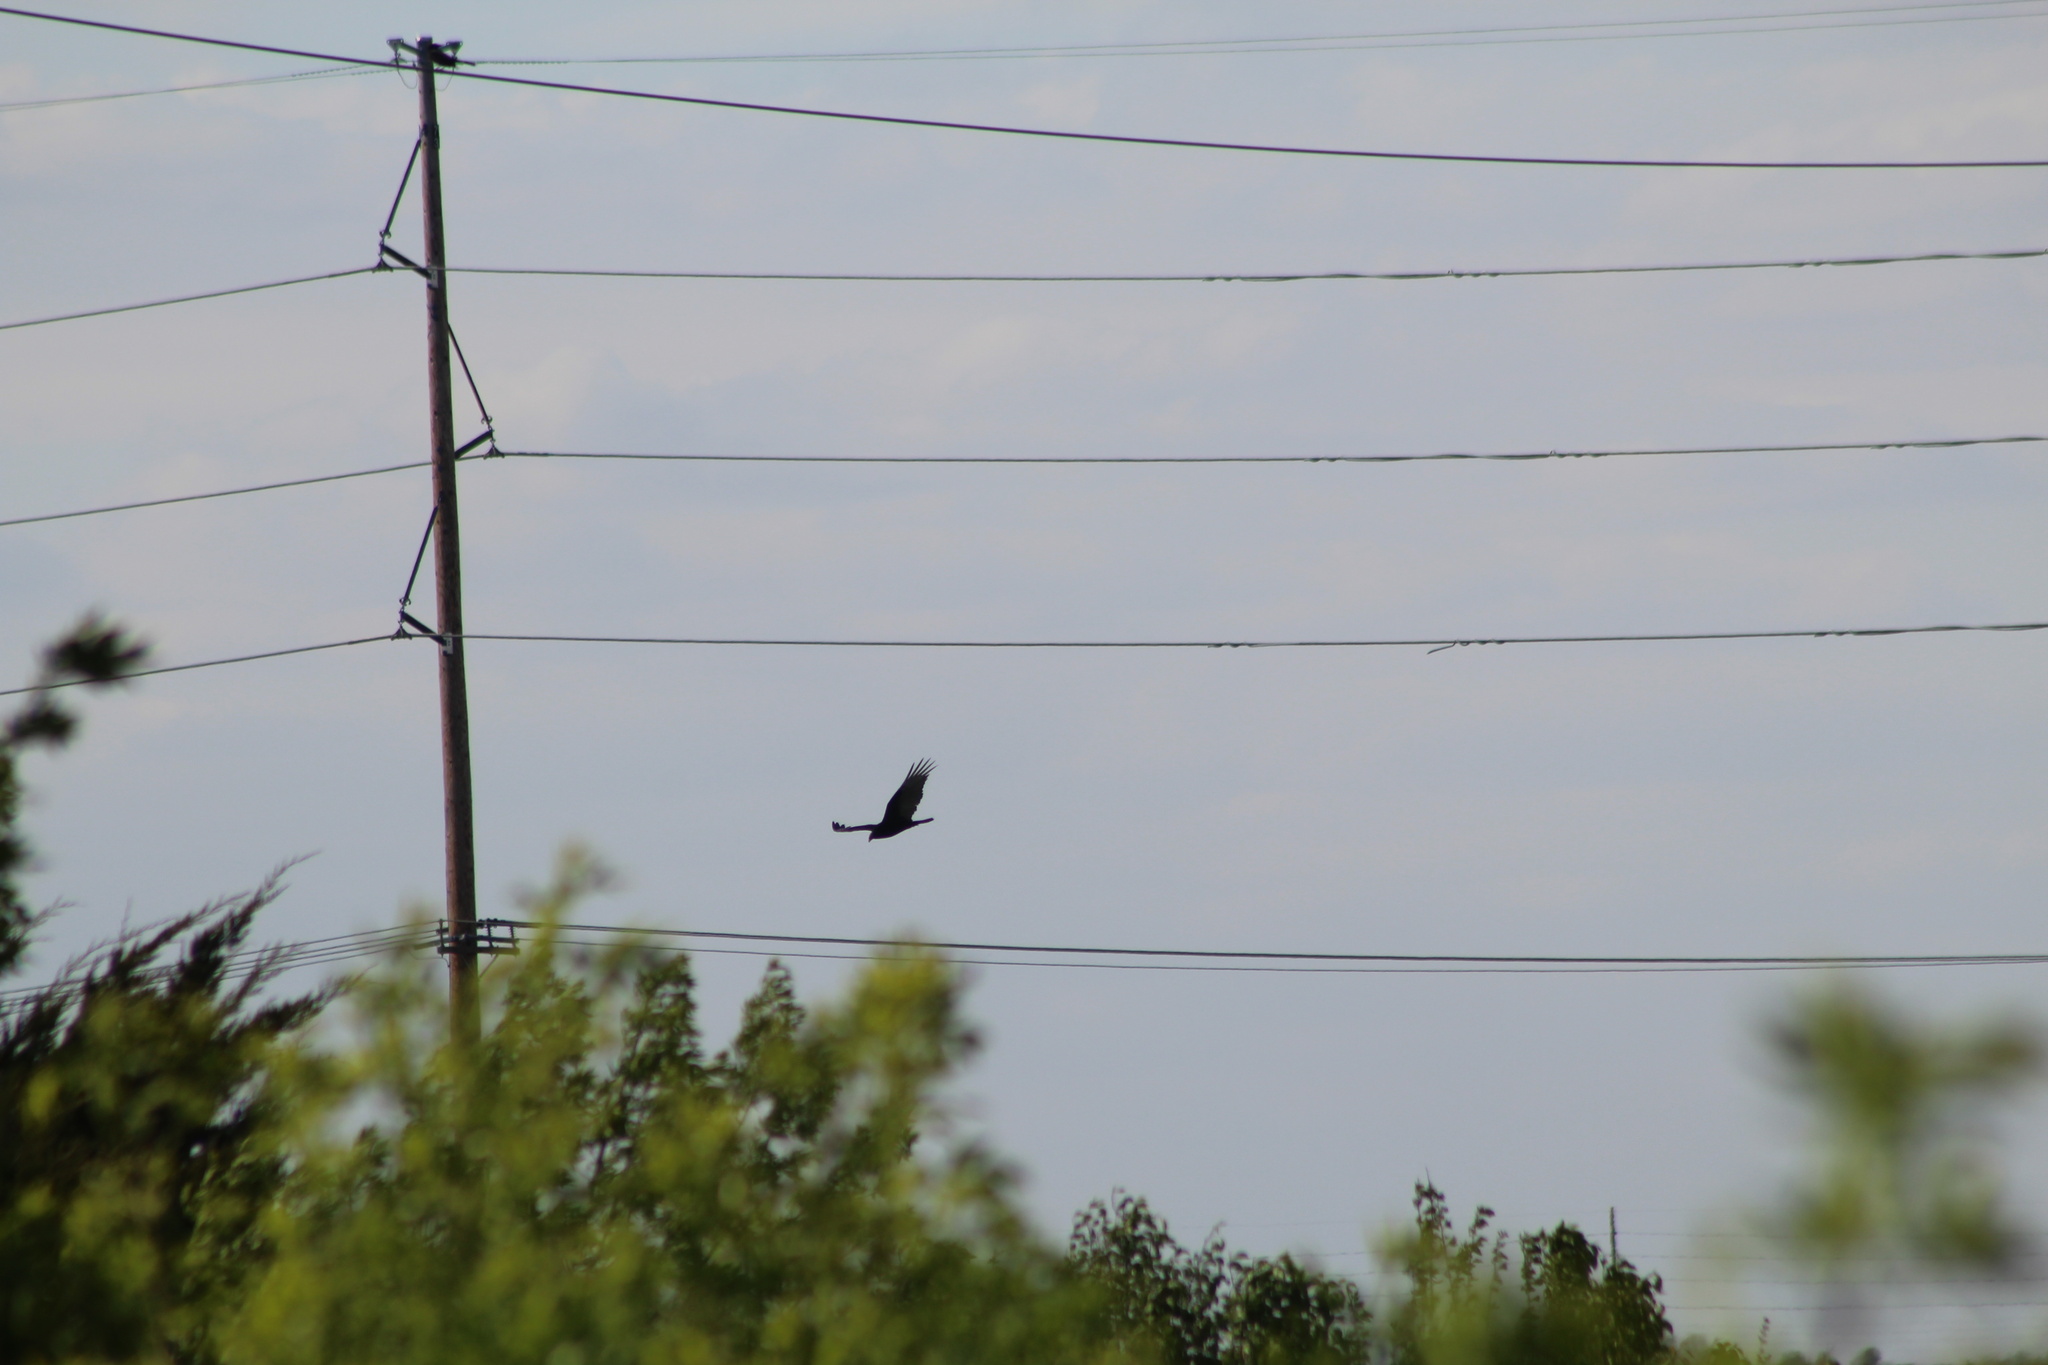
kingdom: Animalia
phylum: Chordata
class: Aves
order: Accipitriformes
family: Cathartidae
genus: Cathartes
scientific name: Cathartes aura
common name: Turkey vulture
